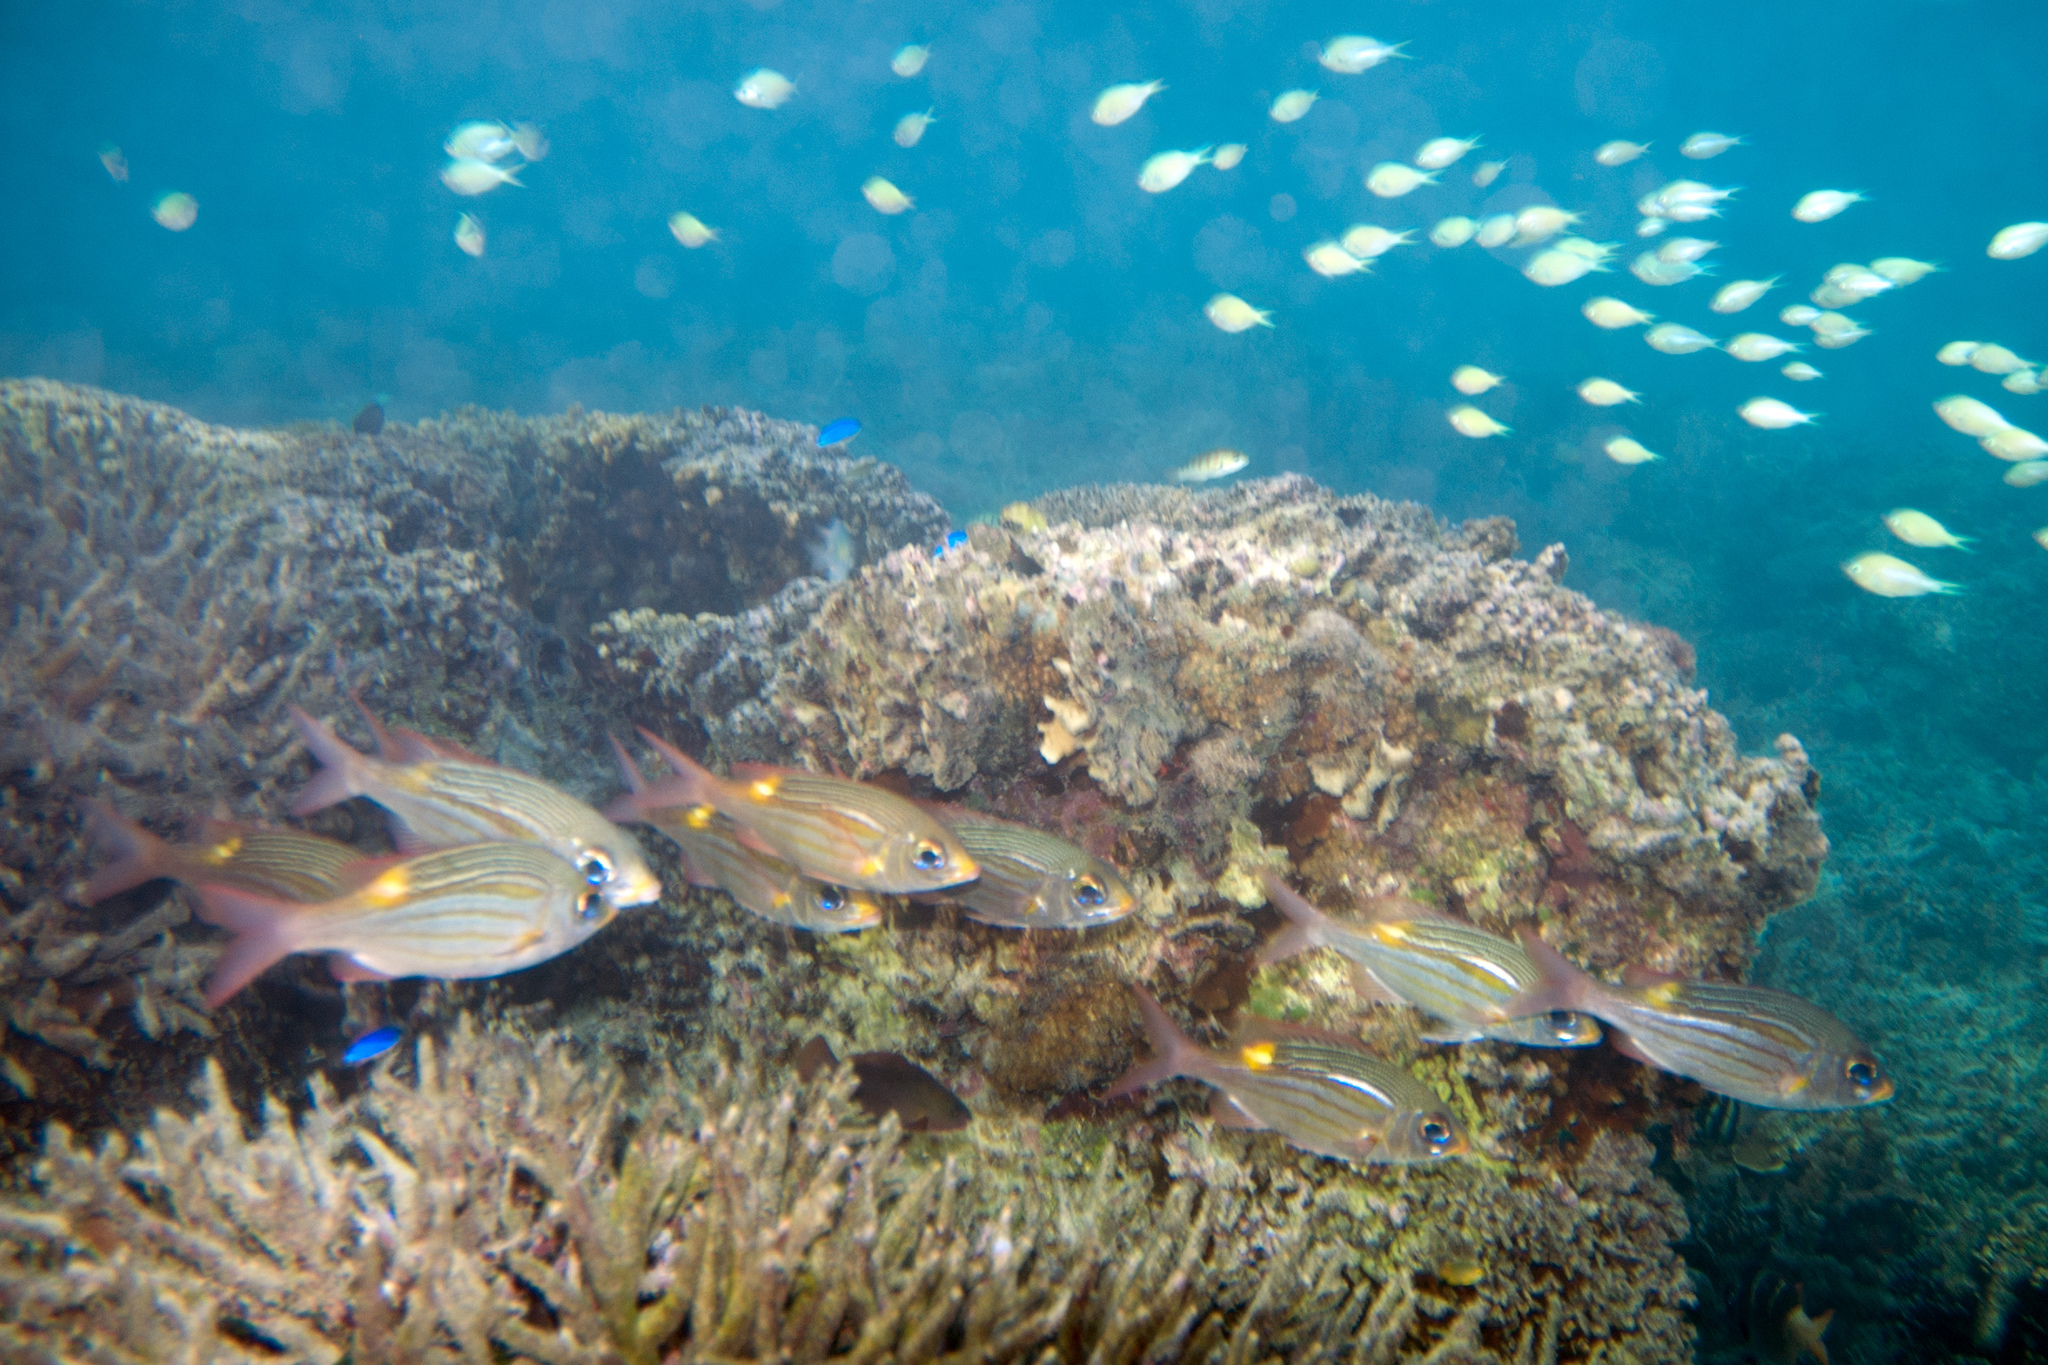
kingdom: Animalia
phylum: Chordata
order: Perciformes
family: Lethrinidae
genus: Gnathodentex
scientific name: Gnathodentex aureolineatus
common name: Gold-lined sea bream
